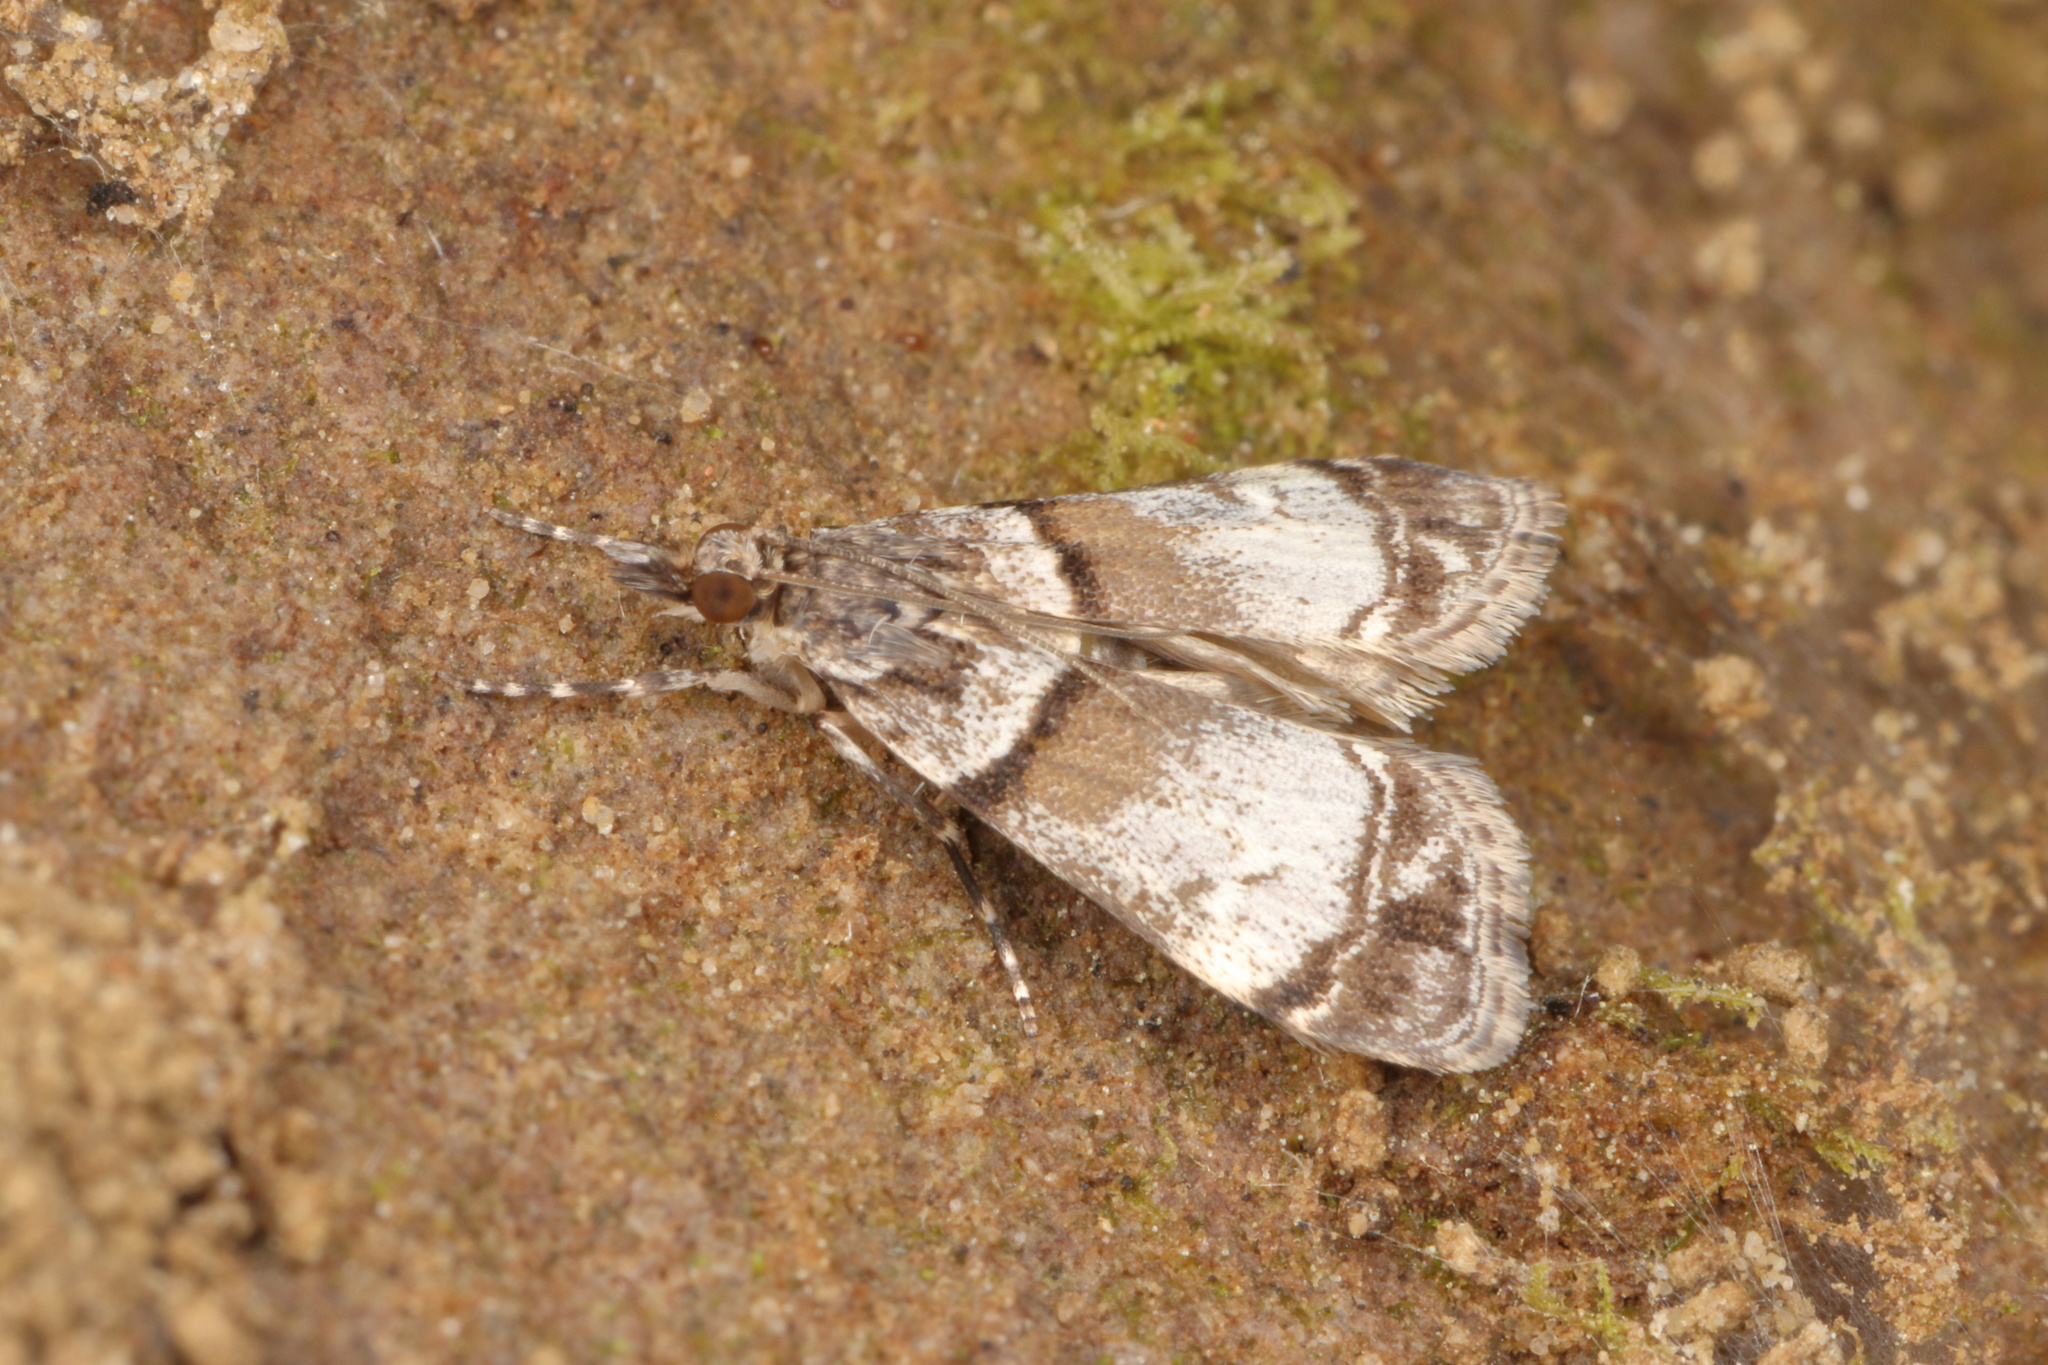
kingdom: Animalia
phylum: Arthropoda
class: Insecta
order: Lepidoptera
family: Crambidae
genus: Eudonia
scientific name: Eudonia choristis
